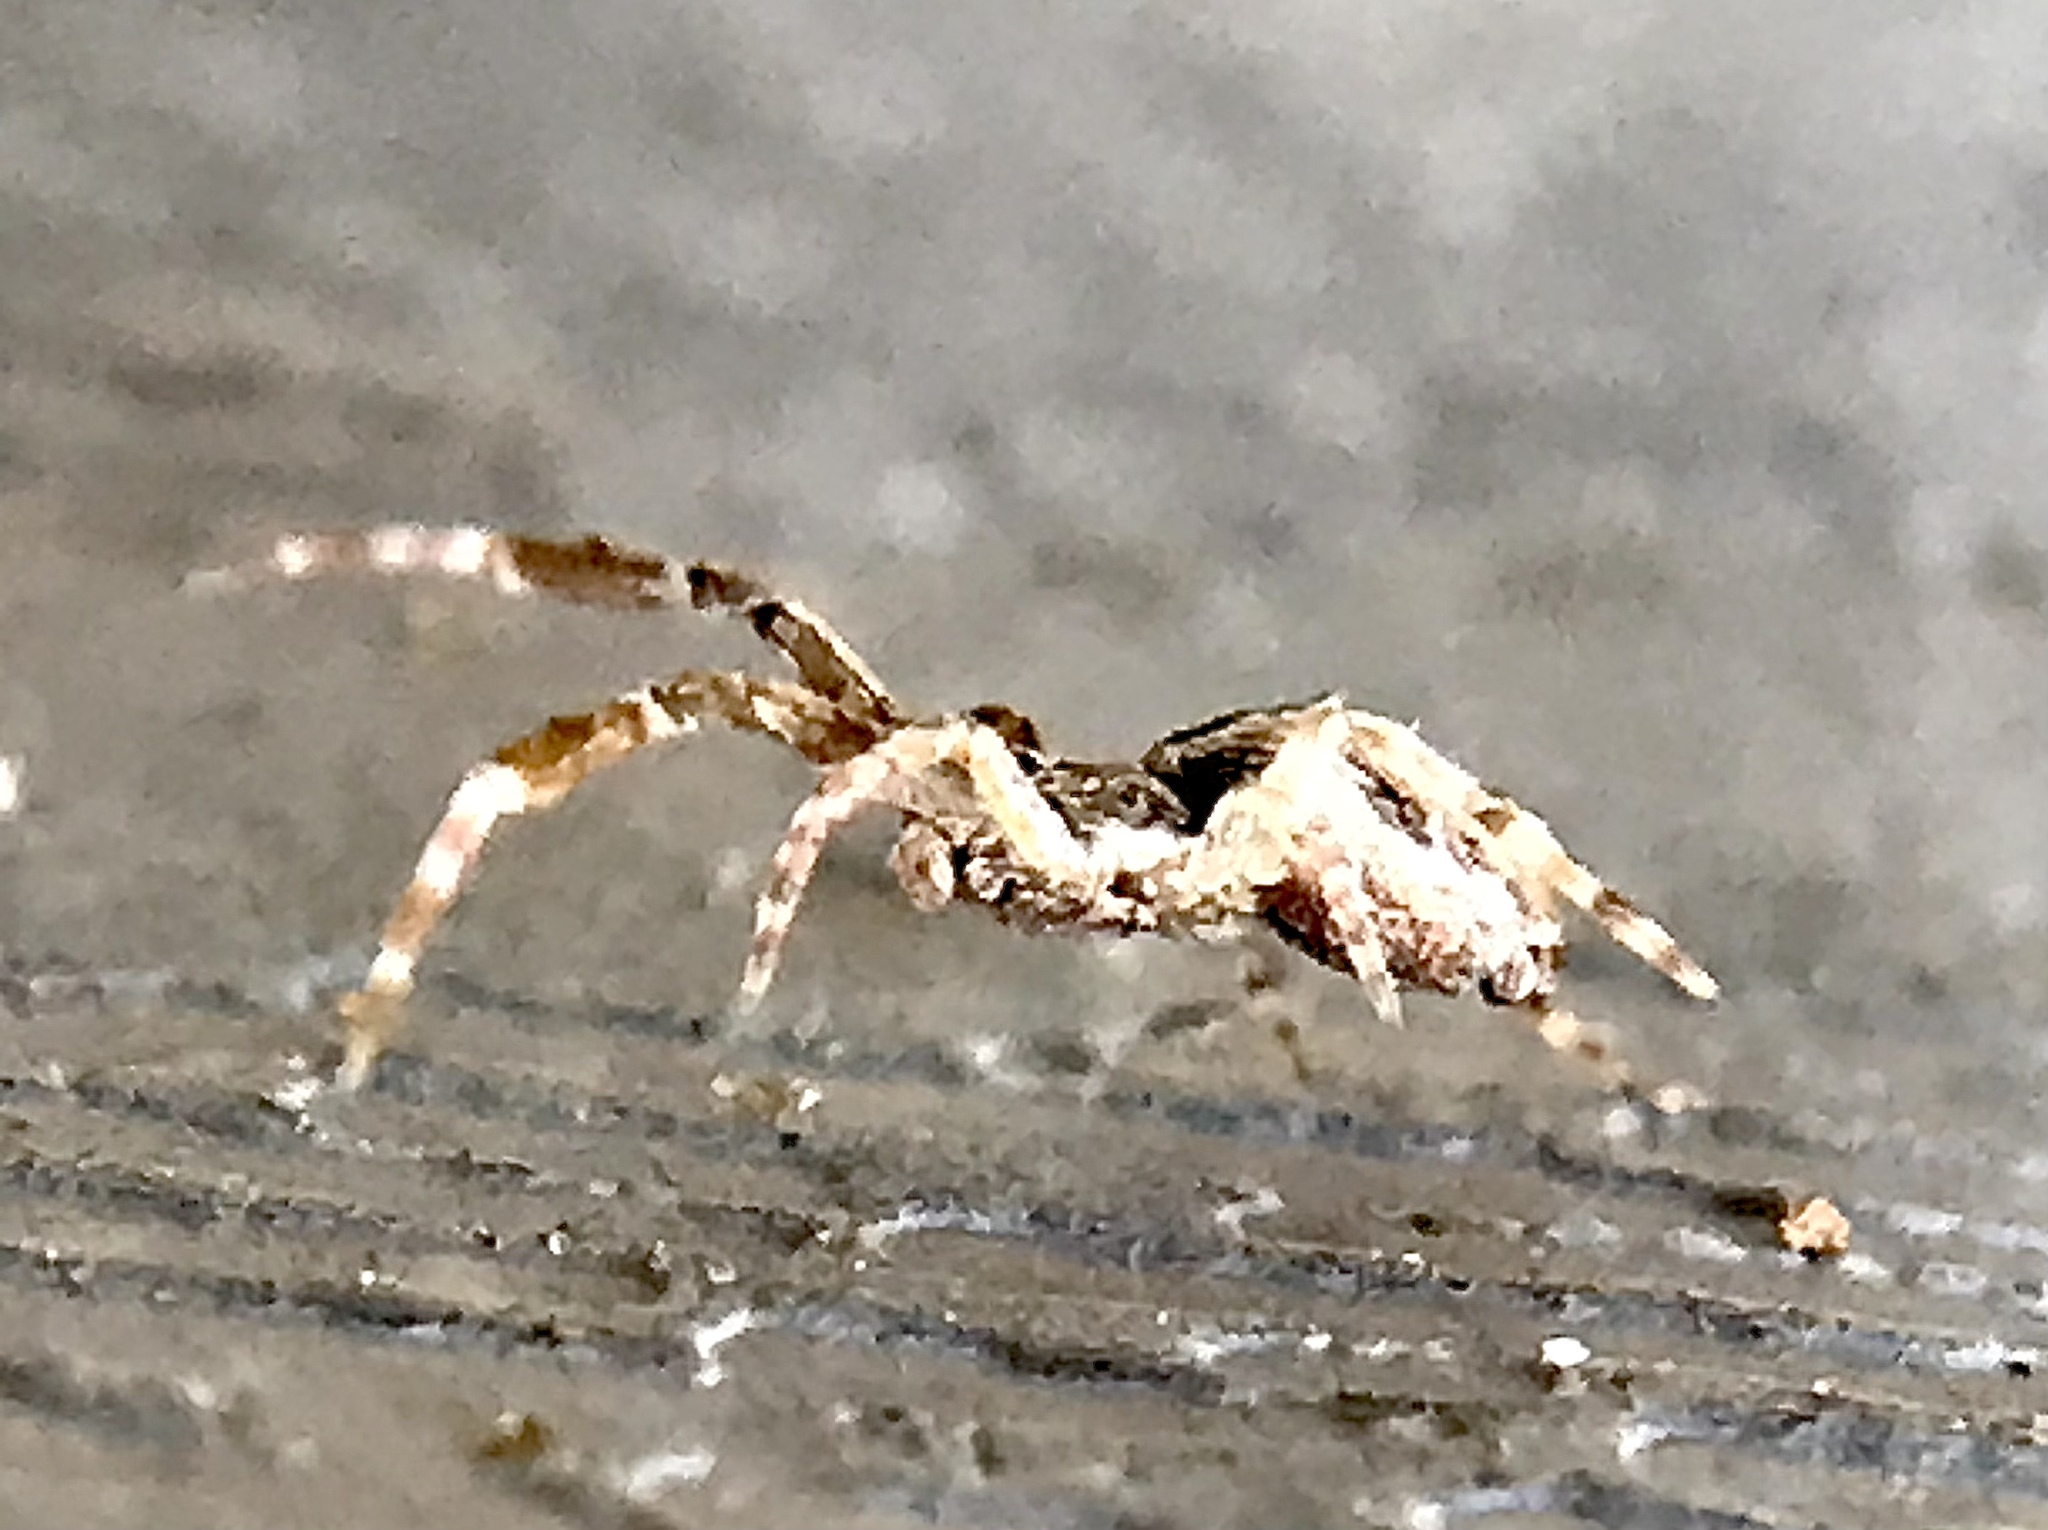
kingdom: Animalia
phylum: Arthropoda
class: Arachnida
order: Araneae
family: Uloboridae
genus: Uloborus
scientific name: Uloborus glomosus
